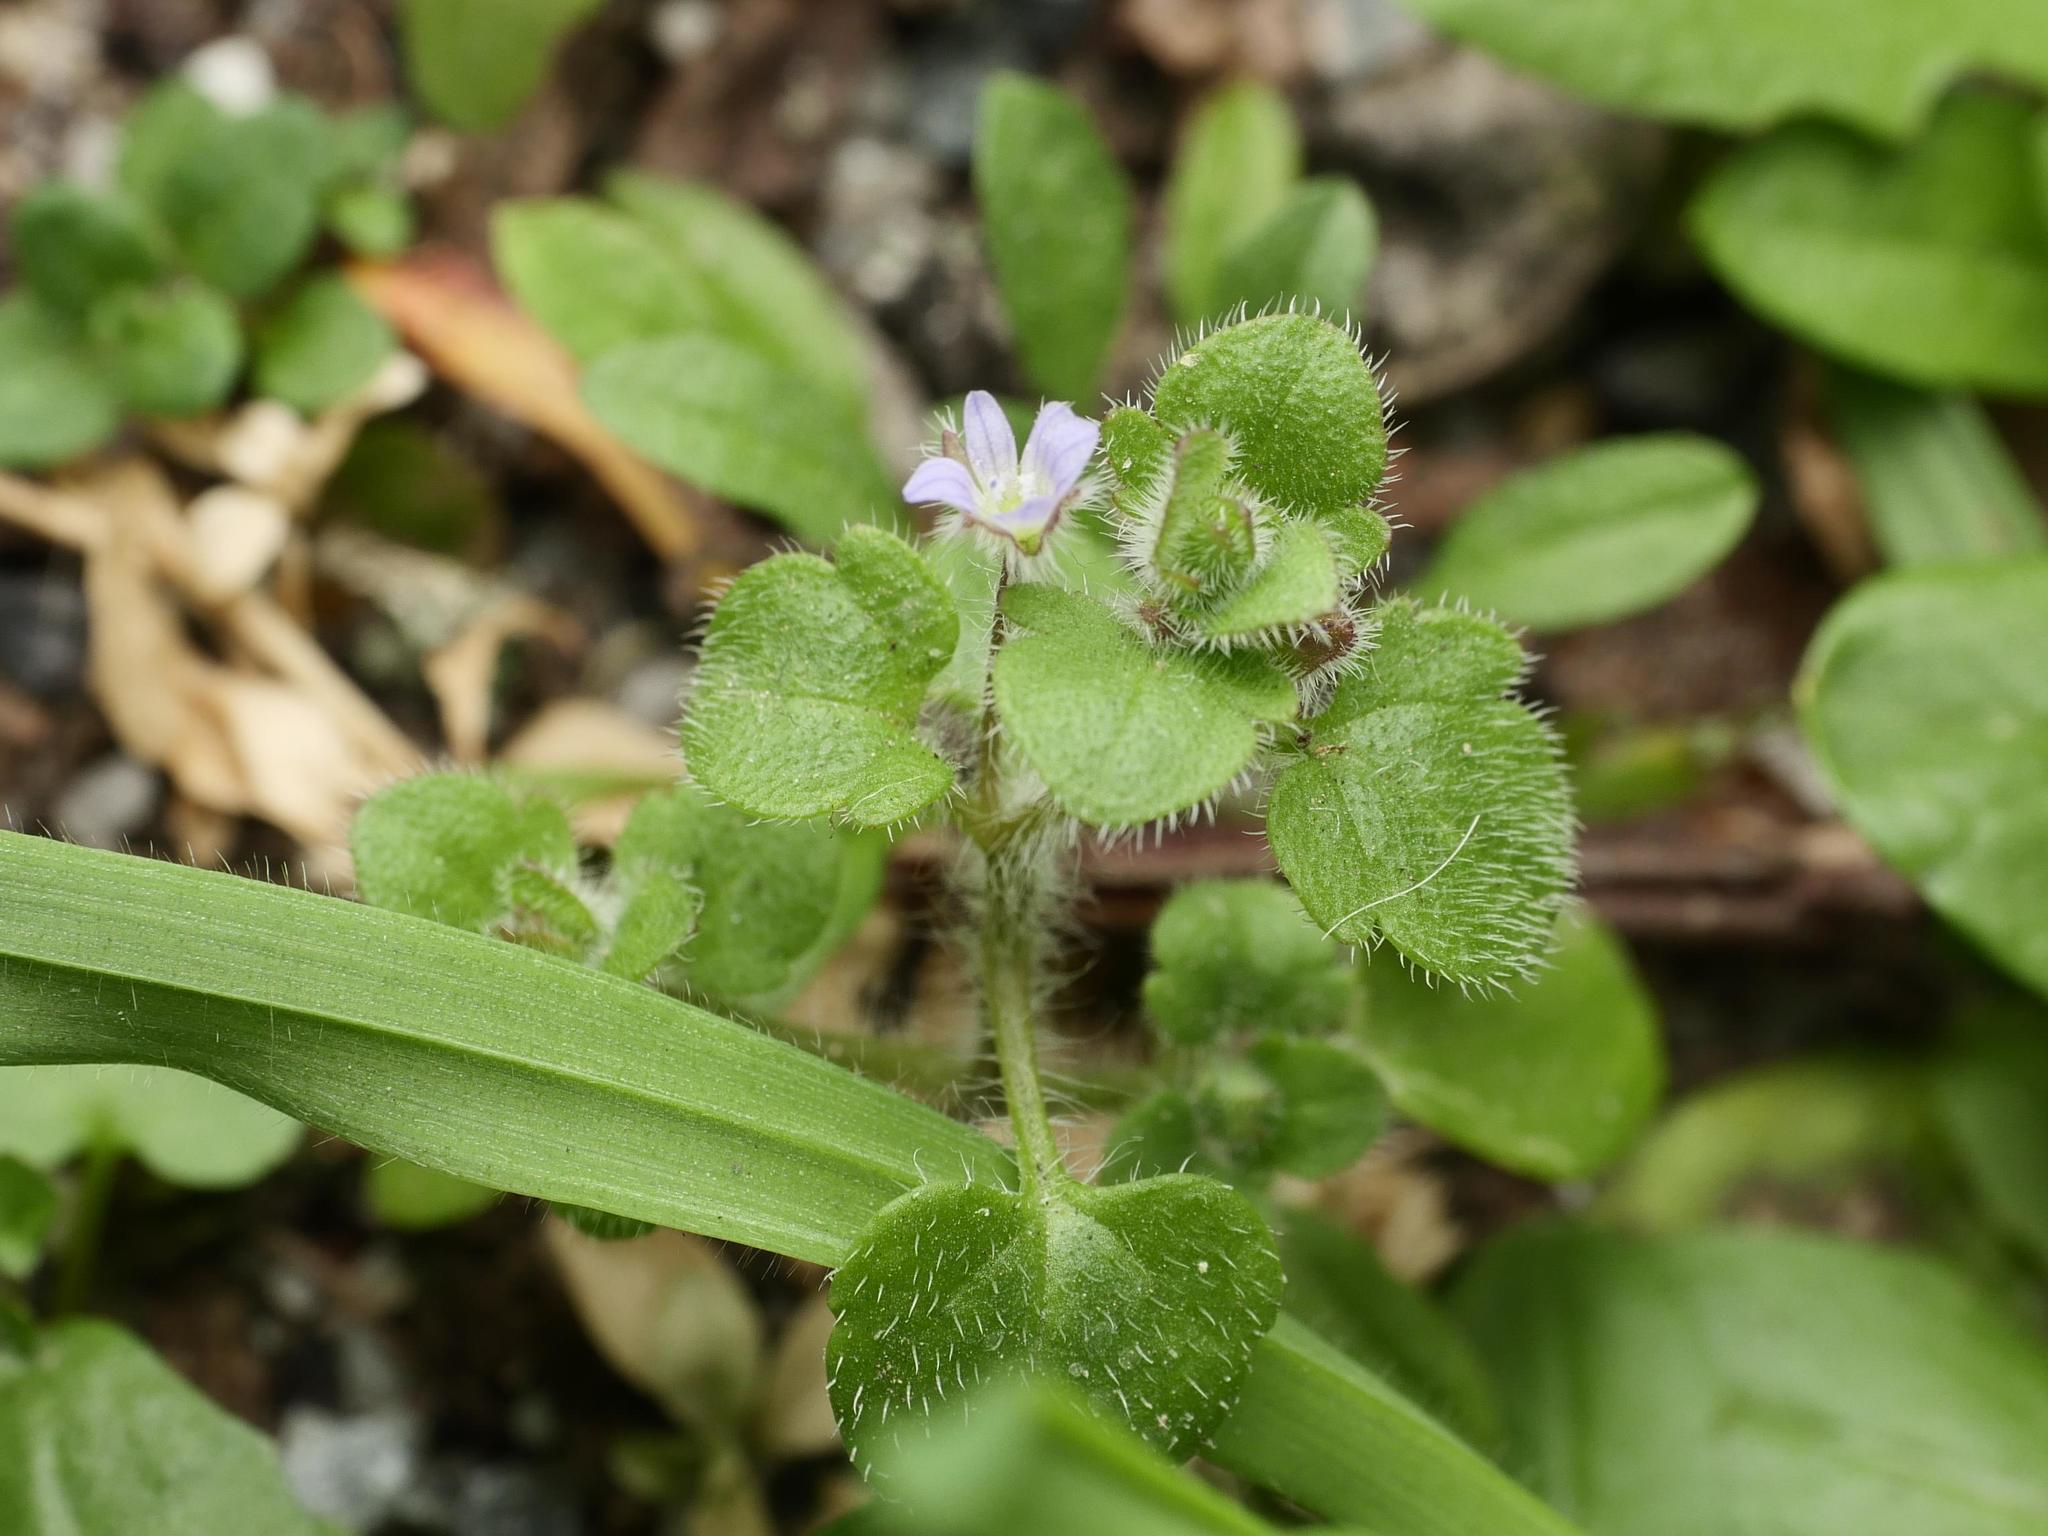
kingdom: Plantae
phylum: Tracheophyta
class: Magnoliopsida
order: Lamiales
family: Plantaginaceae
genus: Veronica
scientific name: Veronica sublobata
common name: False ivy-leaved speedwell
